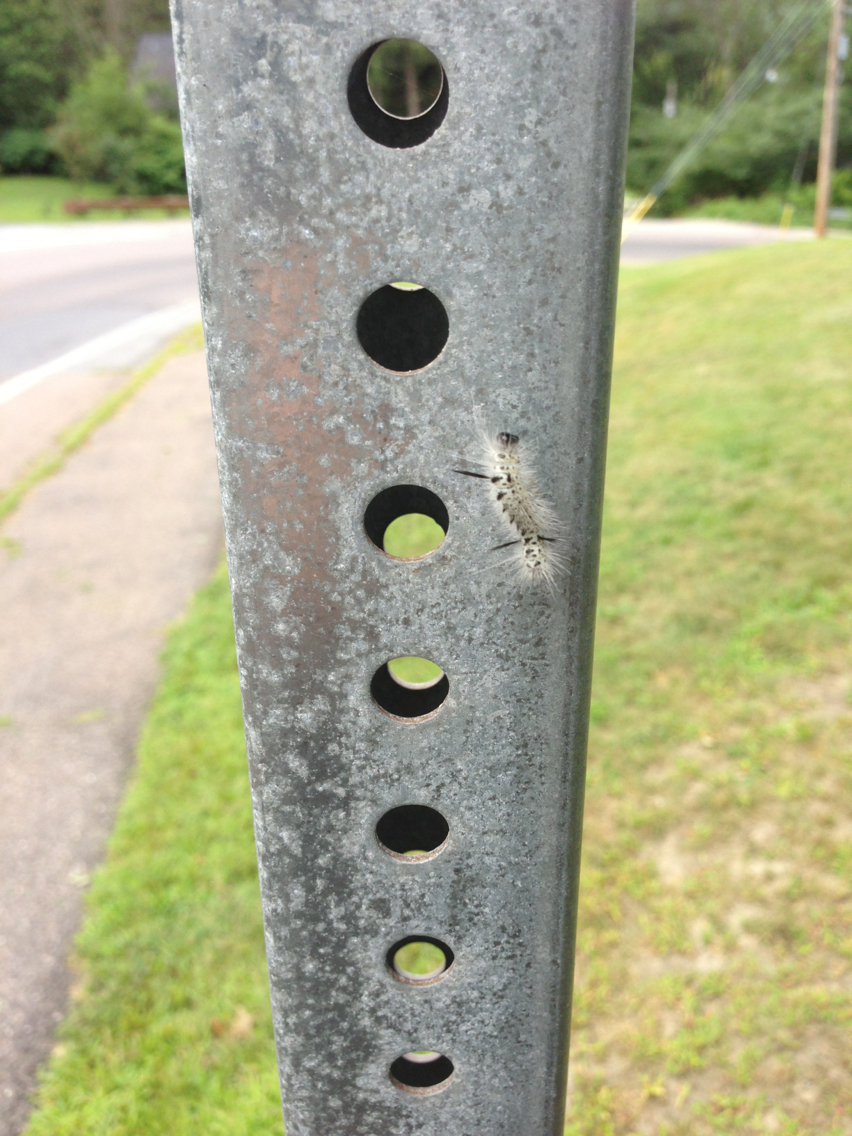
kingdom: Animalia
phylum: Arthropoda
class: Insecta
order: Lepidoptera
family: Erebidae
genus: Lophocampa
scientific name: Lophocampa caryae
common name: Hickory tussock moth
